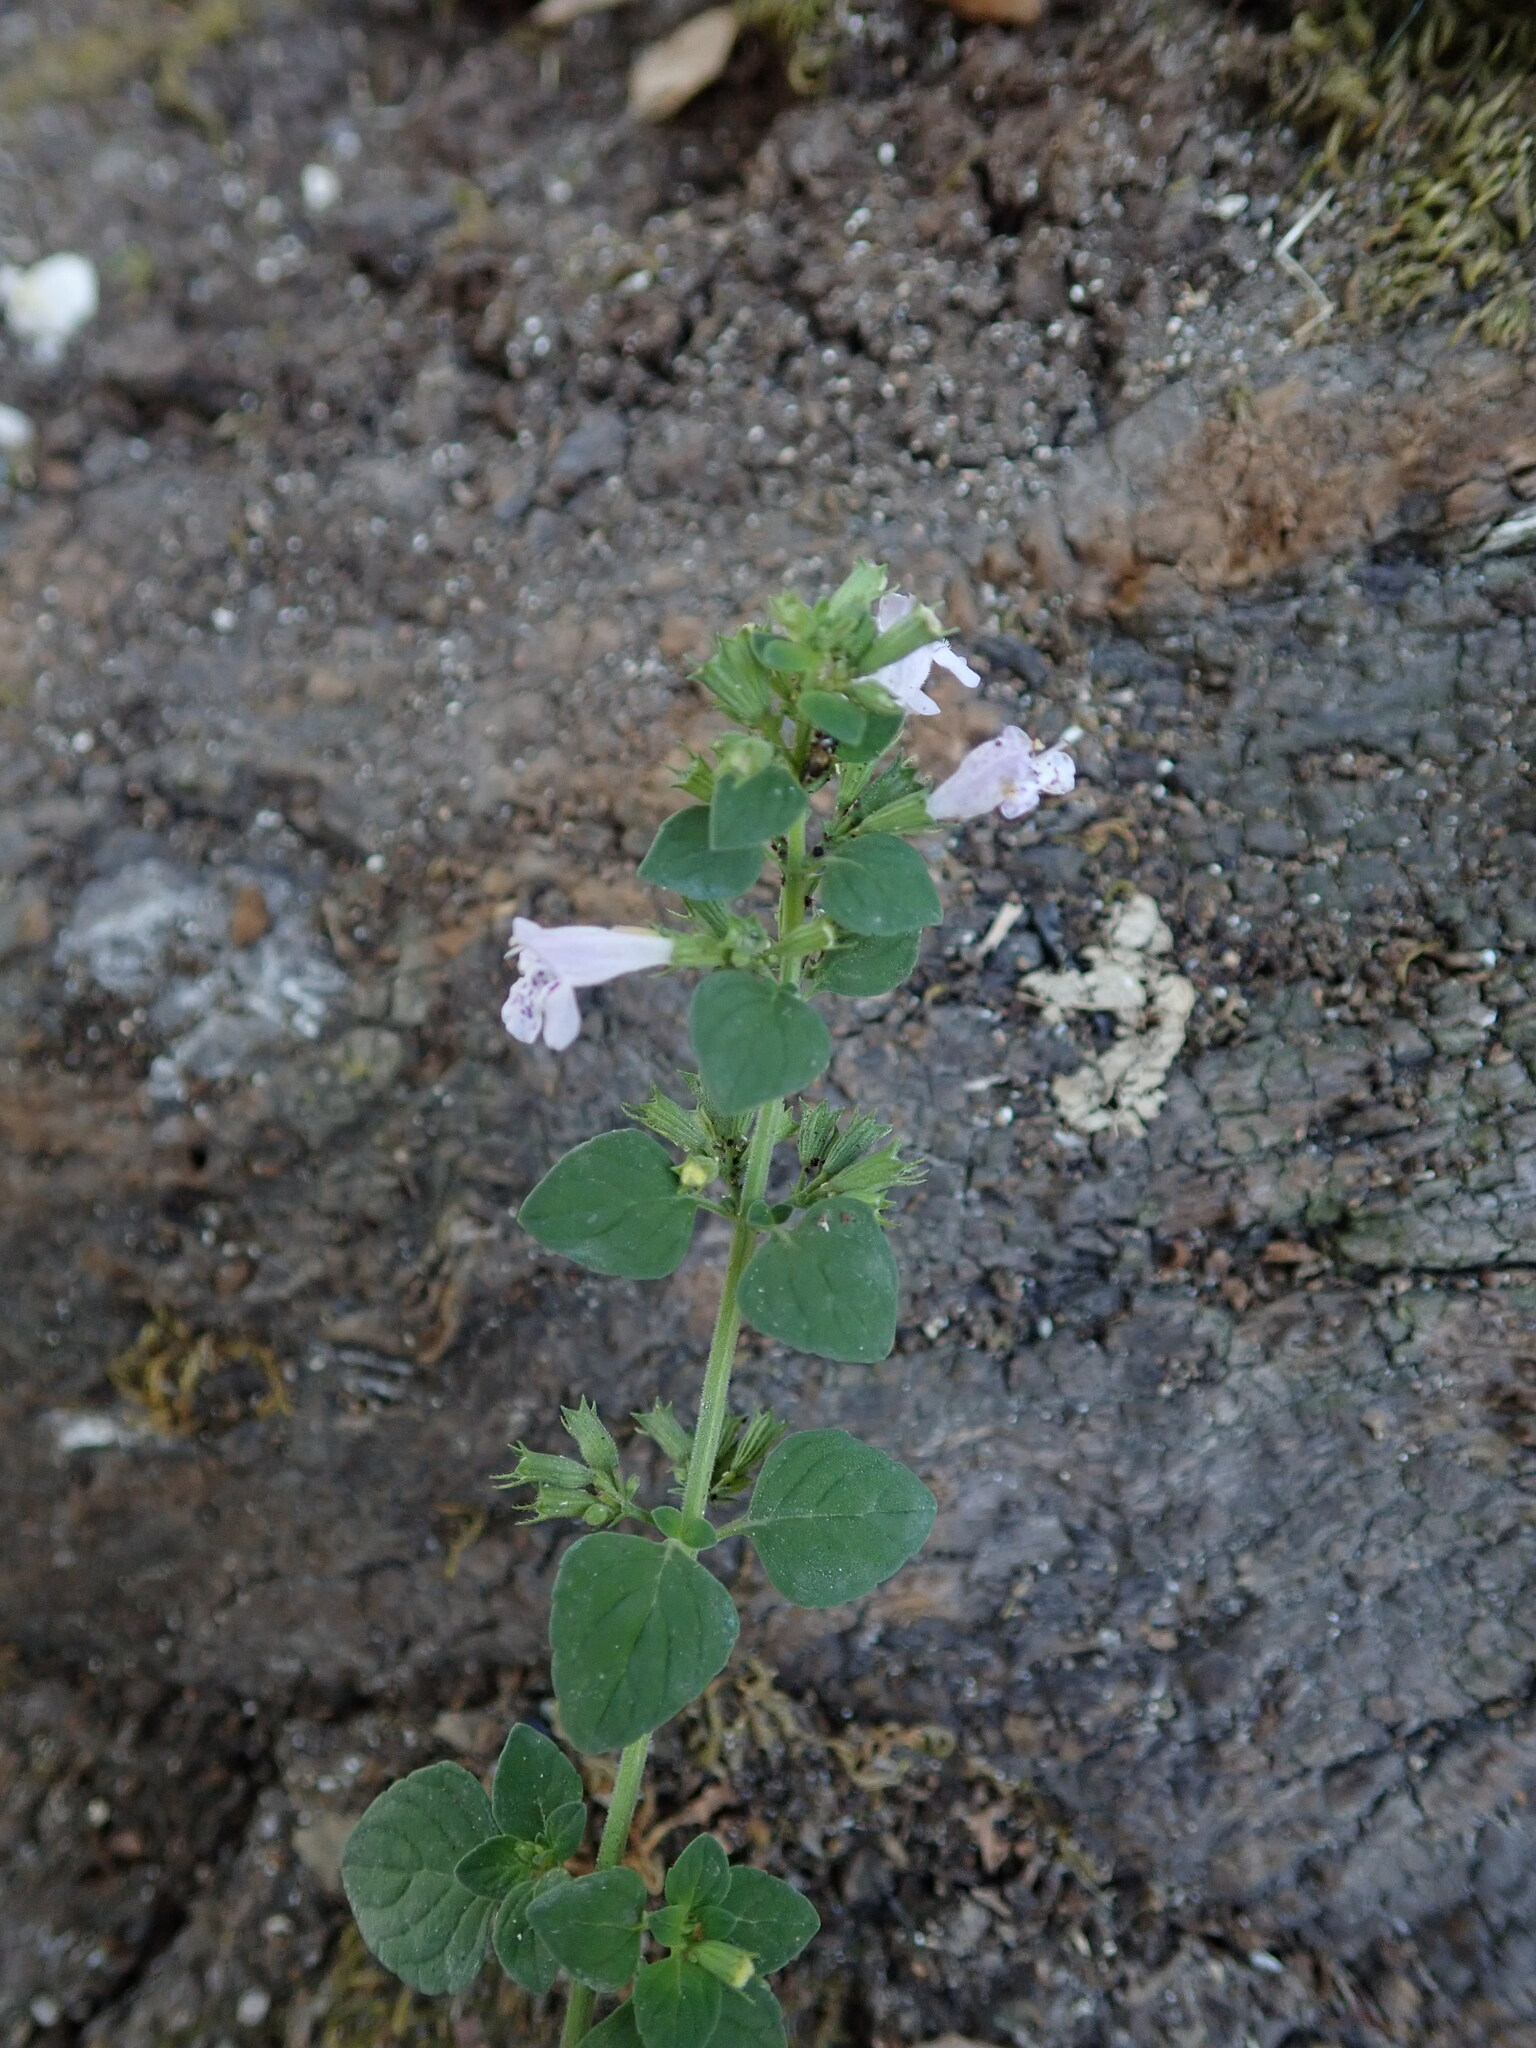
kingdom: Plantae
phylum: Tracheophyta
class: Magnoliopsida
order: Lamiales
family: Lamiaceae
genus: Clinopodium
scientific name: Clinopodium nepeta
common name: Lesser calamint
